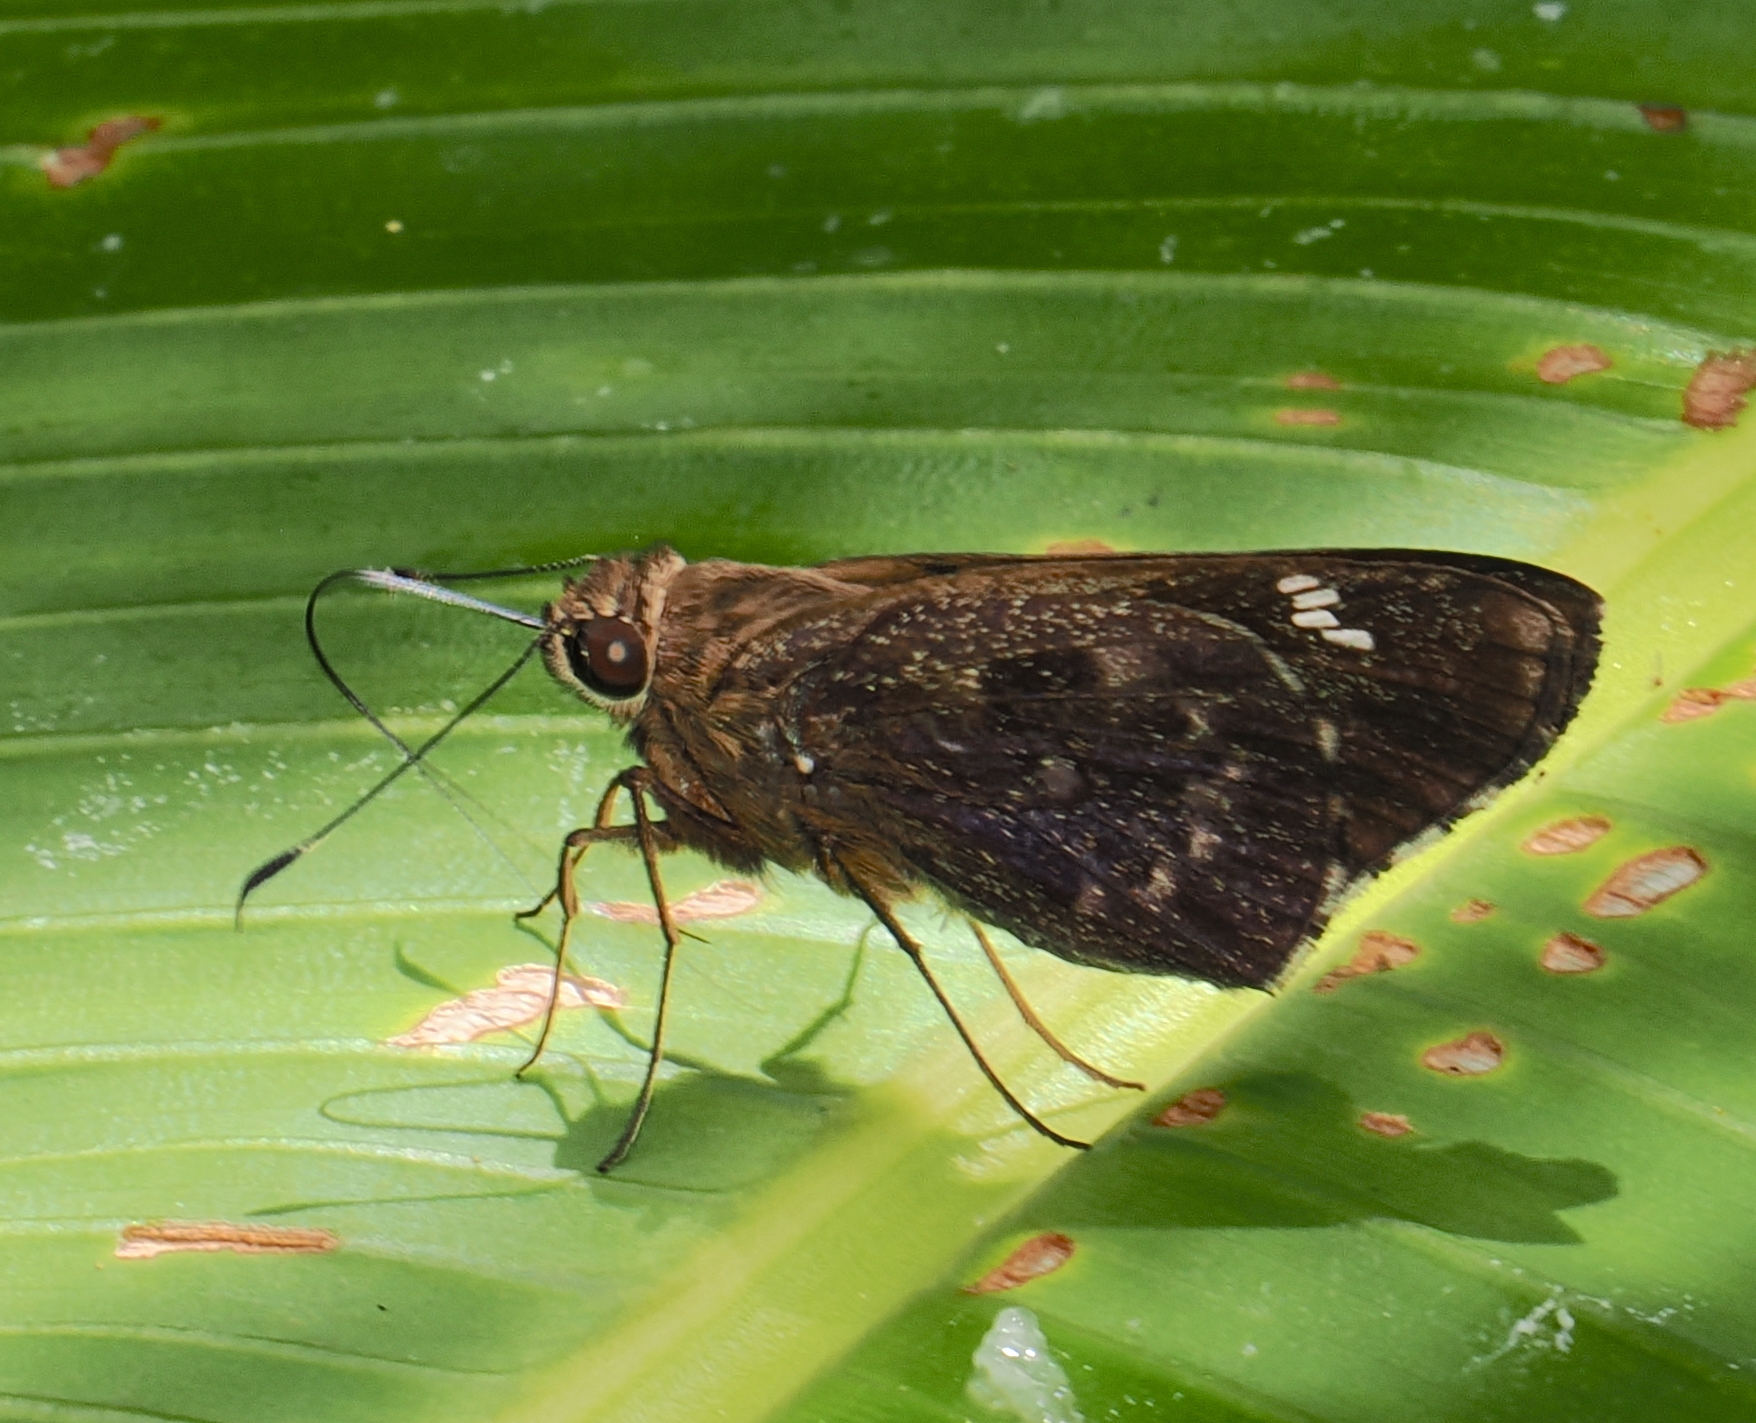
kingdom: Animalia
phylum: Arthropoda
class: Insecta
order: Lepidoptera
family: Hesperiidae
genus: Naevolus
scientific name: Naevolus orius
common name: Orius skipper
